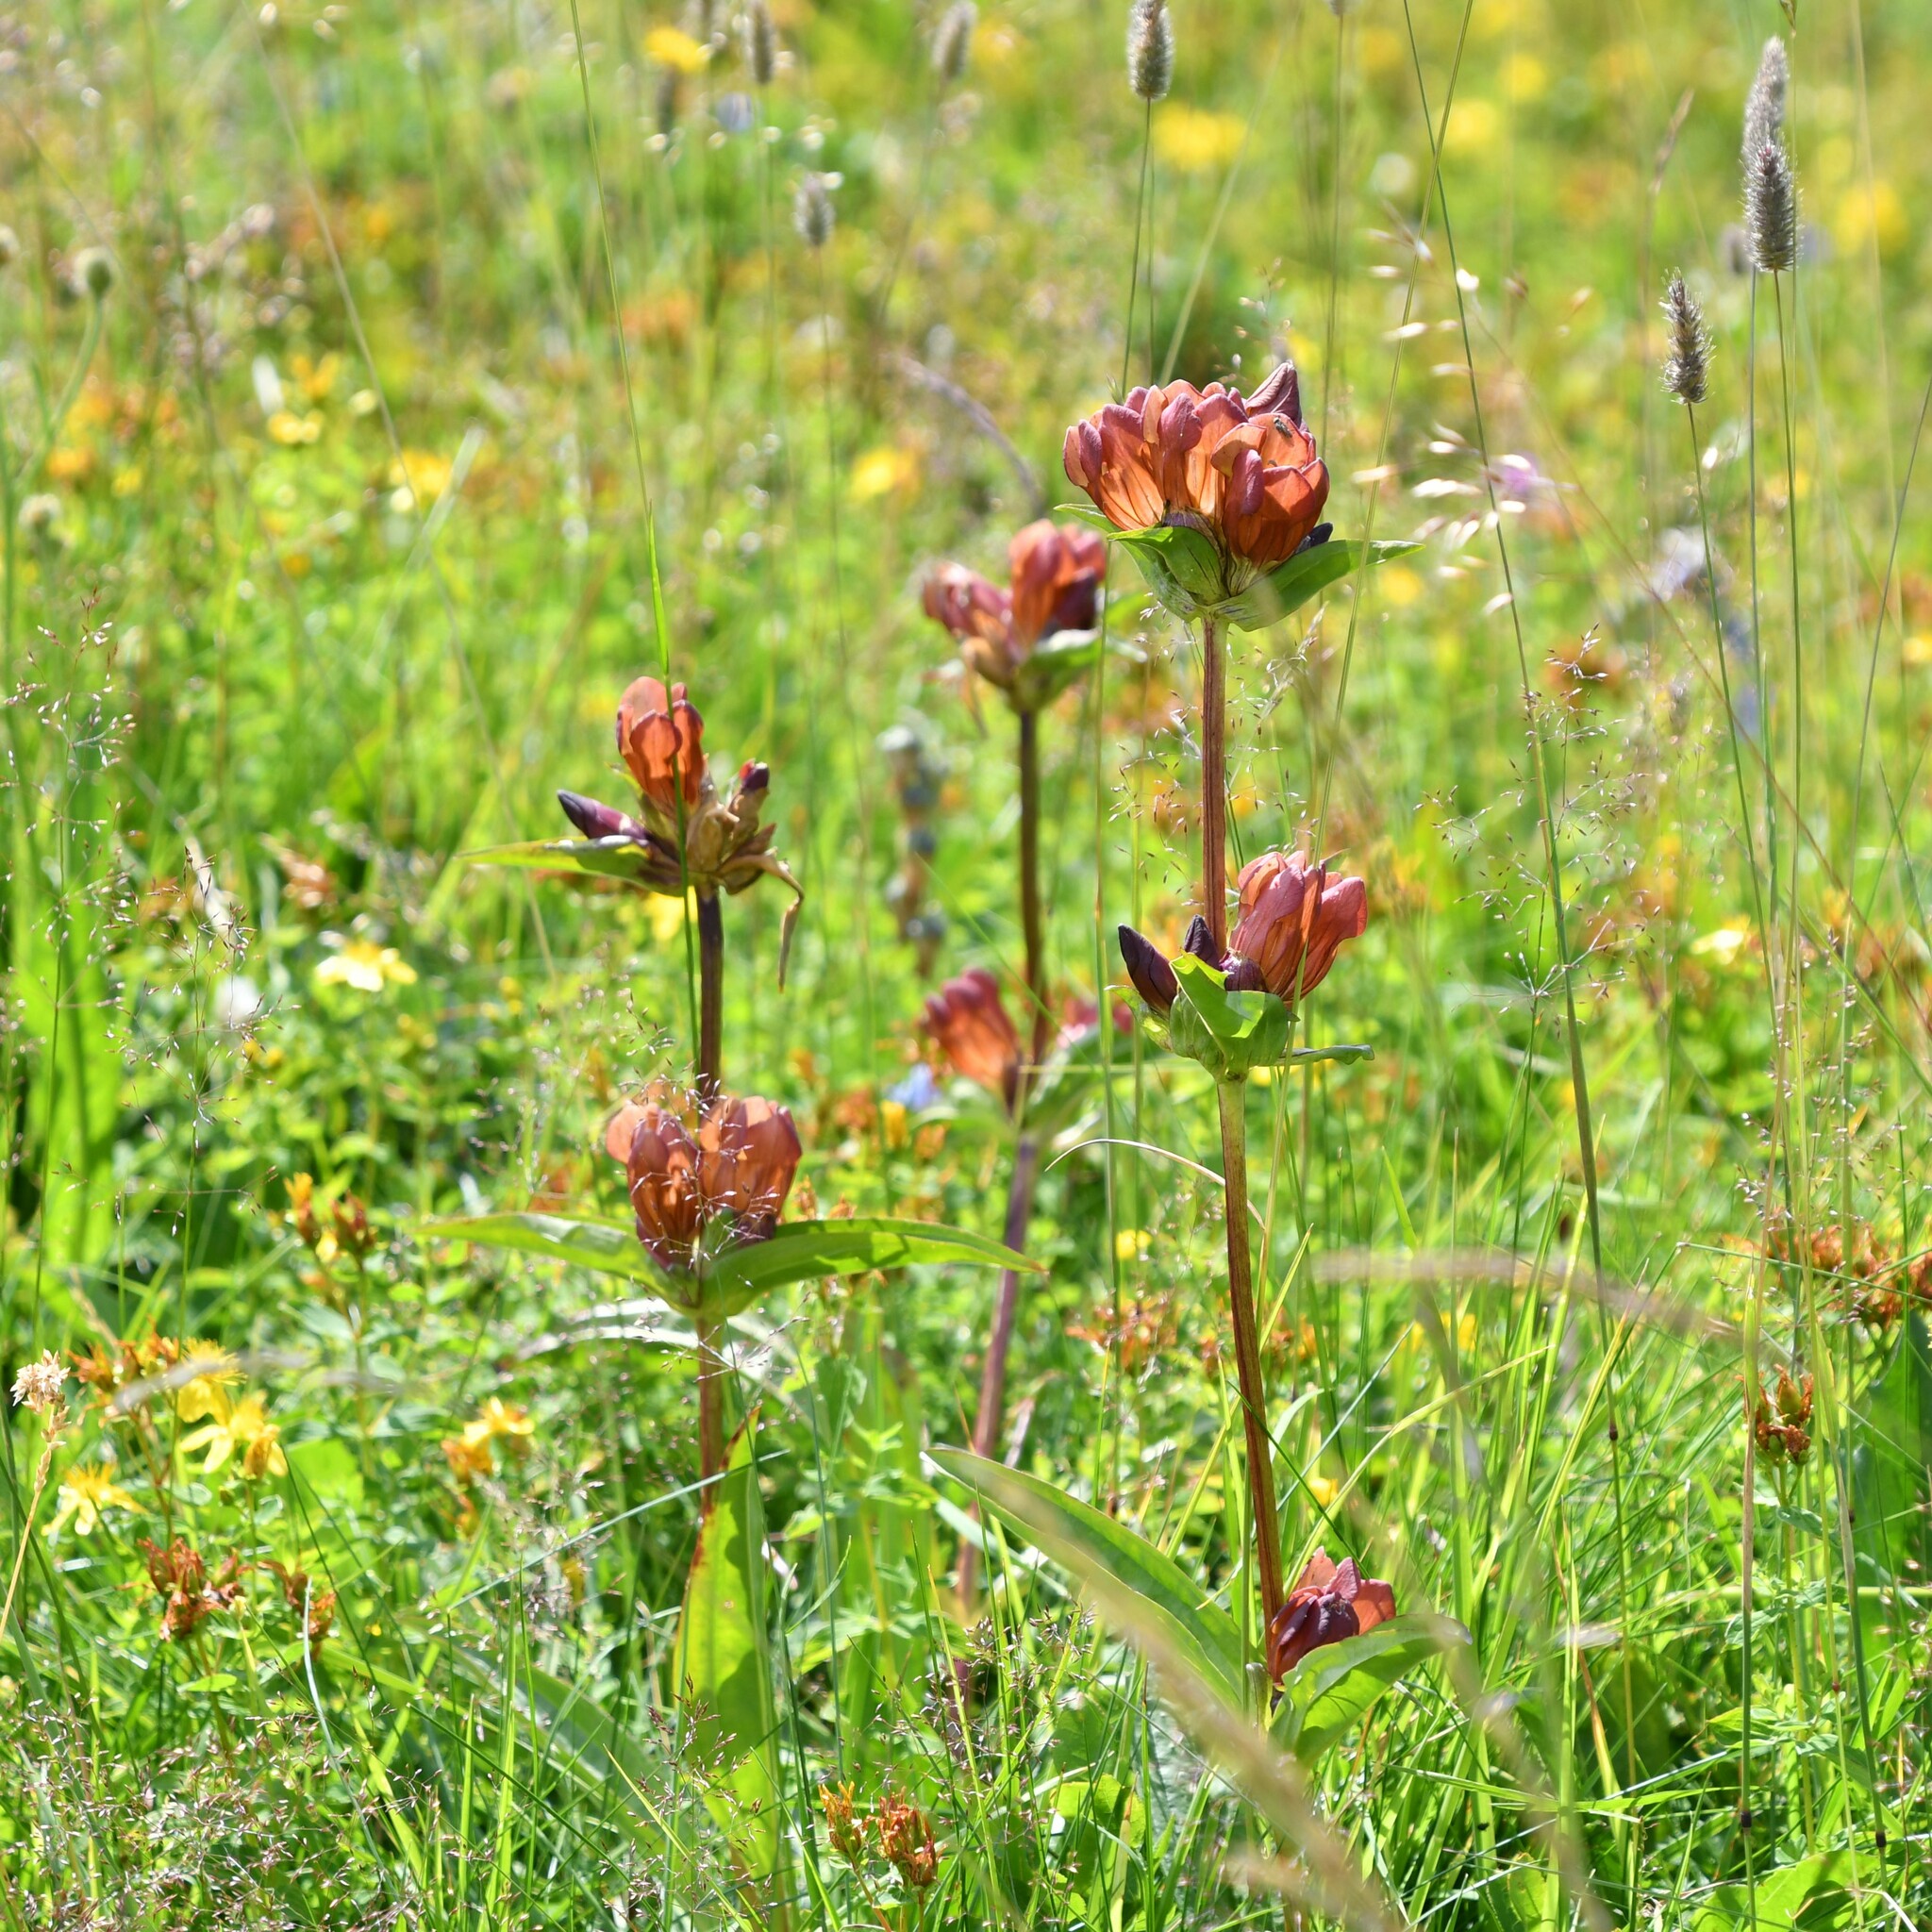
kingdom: Plantae
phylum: Tracheophyta
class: Magnoliopsida
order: Gentianales
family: Gentianaceae
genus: Gentiana
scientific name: Gentiana purpurea
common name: Purple gentian
